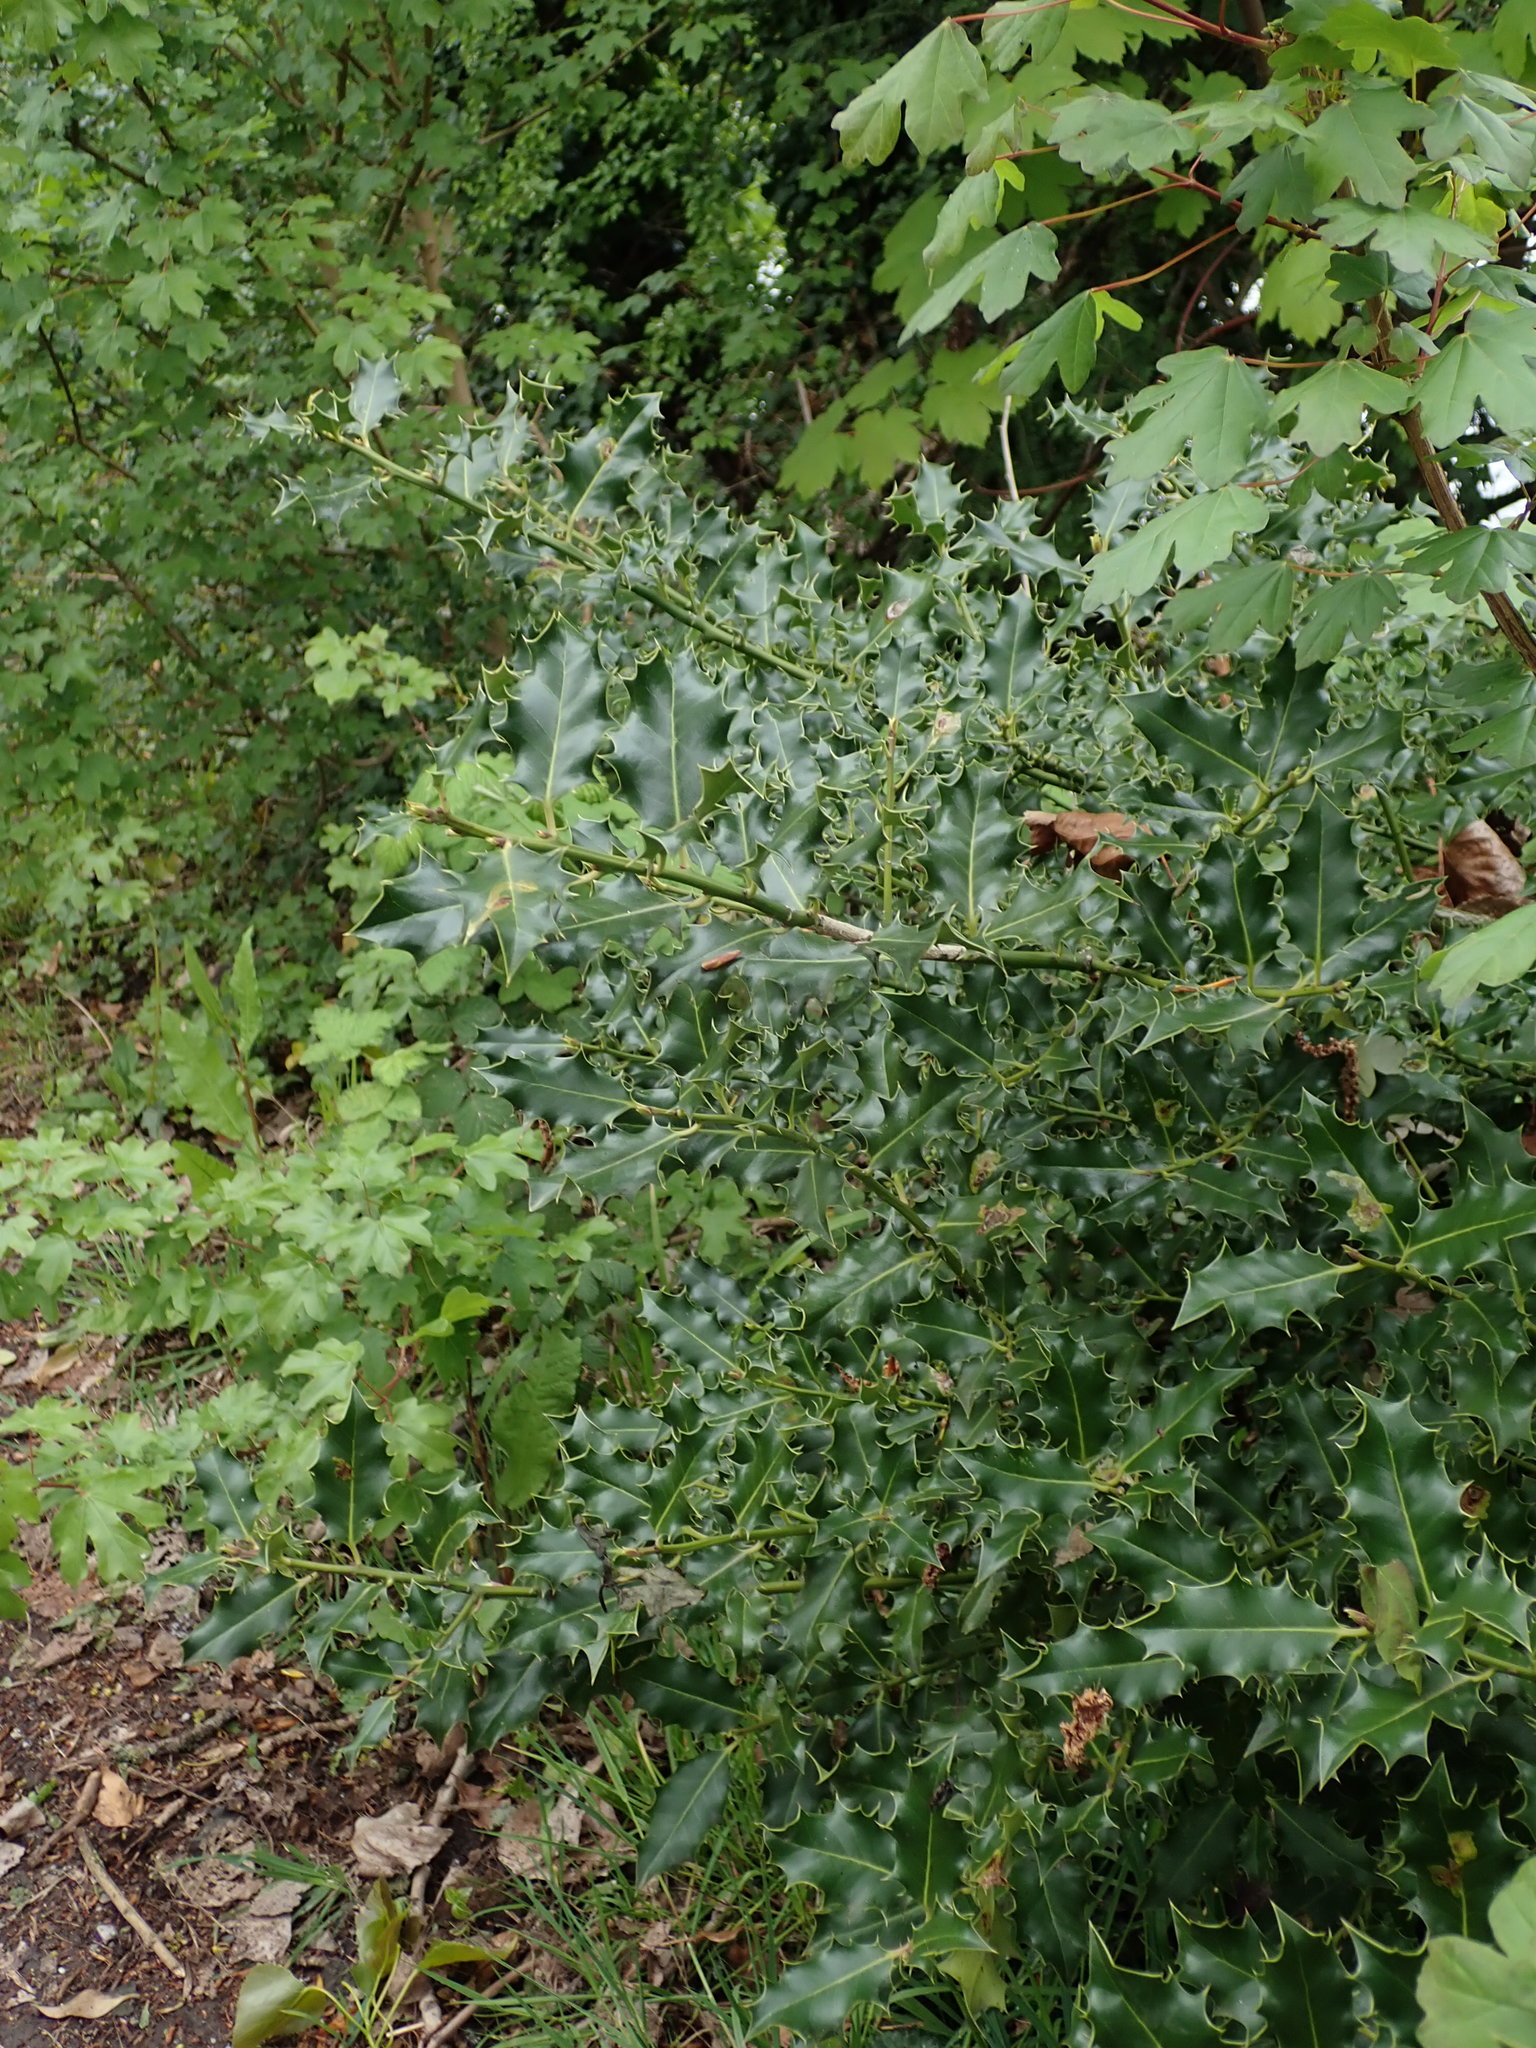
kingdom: Plantae
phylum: Tracheophyta
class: Magnoliopsida
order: Aquifoliales
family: Aquifoliaceae
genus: Ilex
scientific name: Ilex aquifolium
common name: English holly
